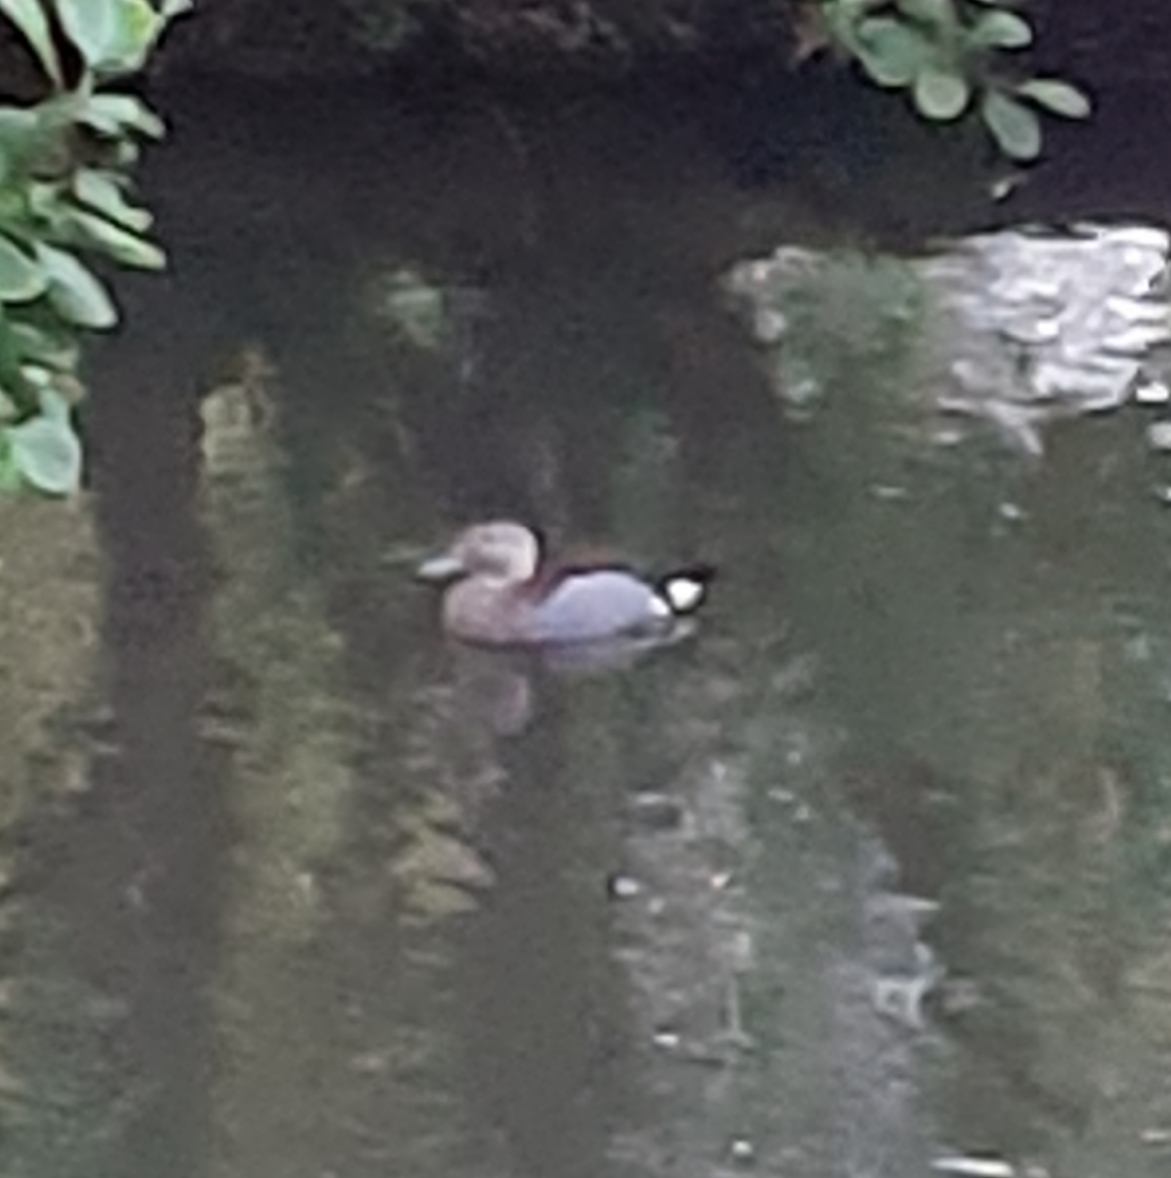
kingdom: Animalia
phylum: Chordata
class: Aves
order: Anseriformes
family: Anatidae
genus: Callonetta
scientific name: Callonetta leucophrys
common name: Ringed teal
